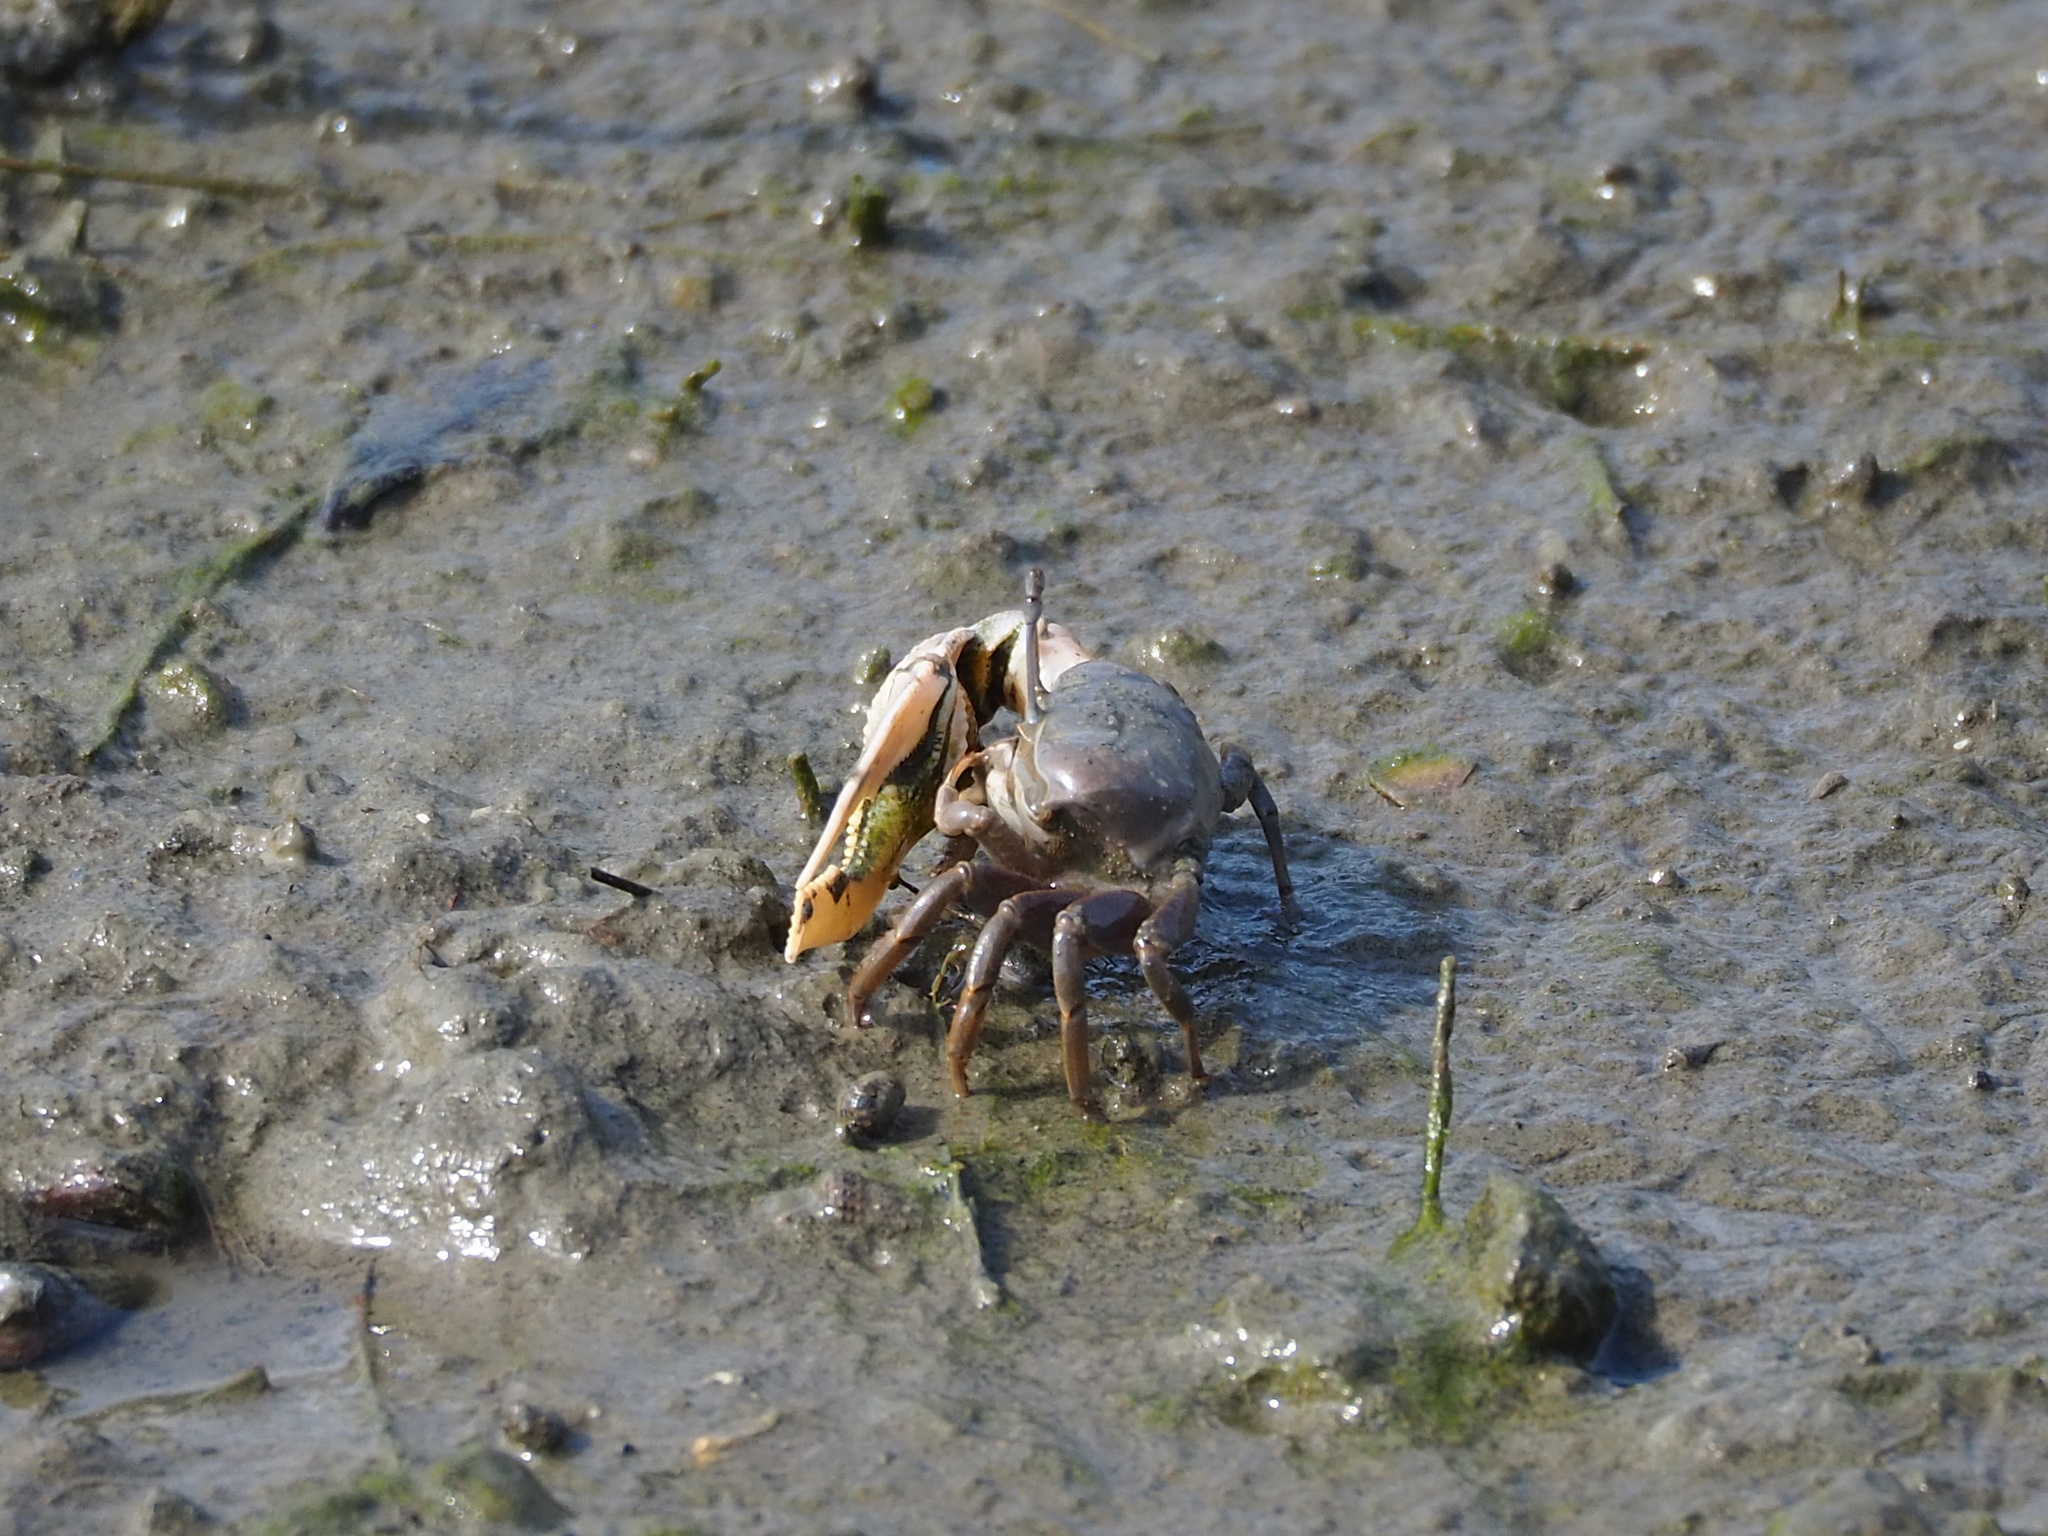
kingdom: Animalia
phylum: Arthropoda
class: Malacostraca
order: Decapoda
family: Ocypodidae
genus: Gelasimus
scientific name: Gelasimus borealis
